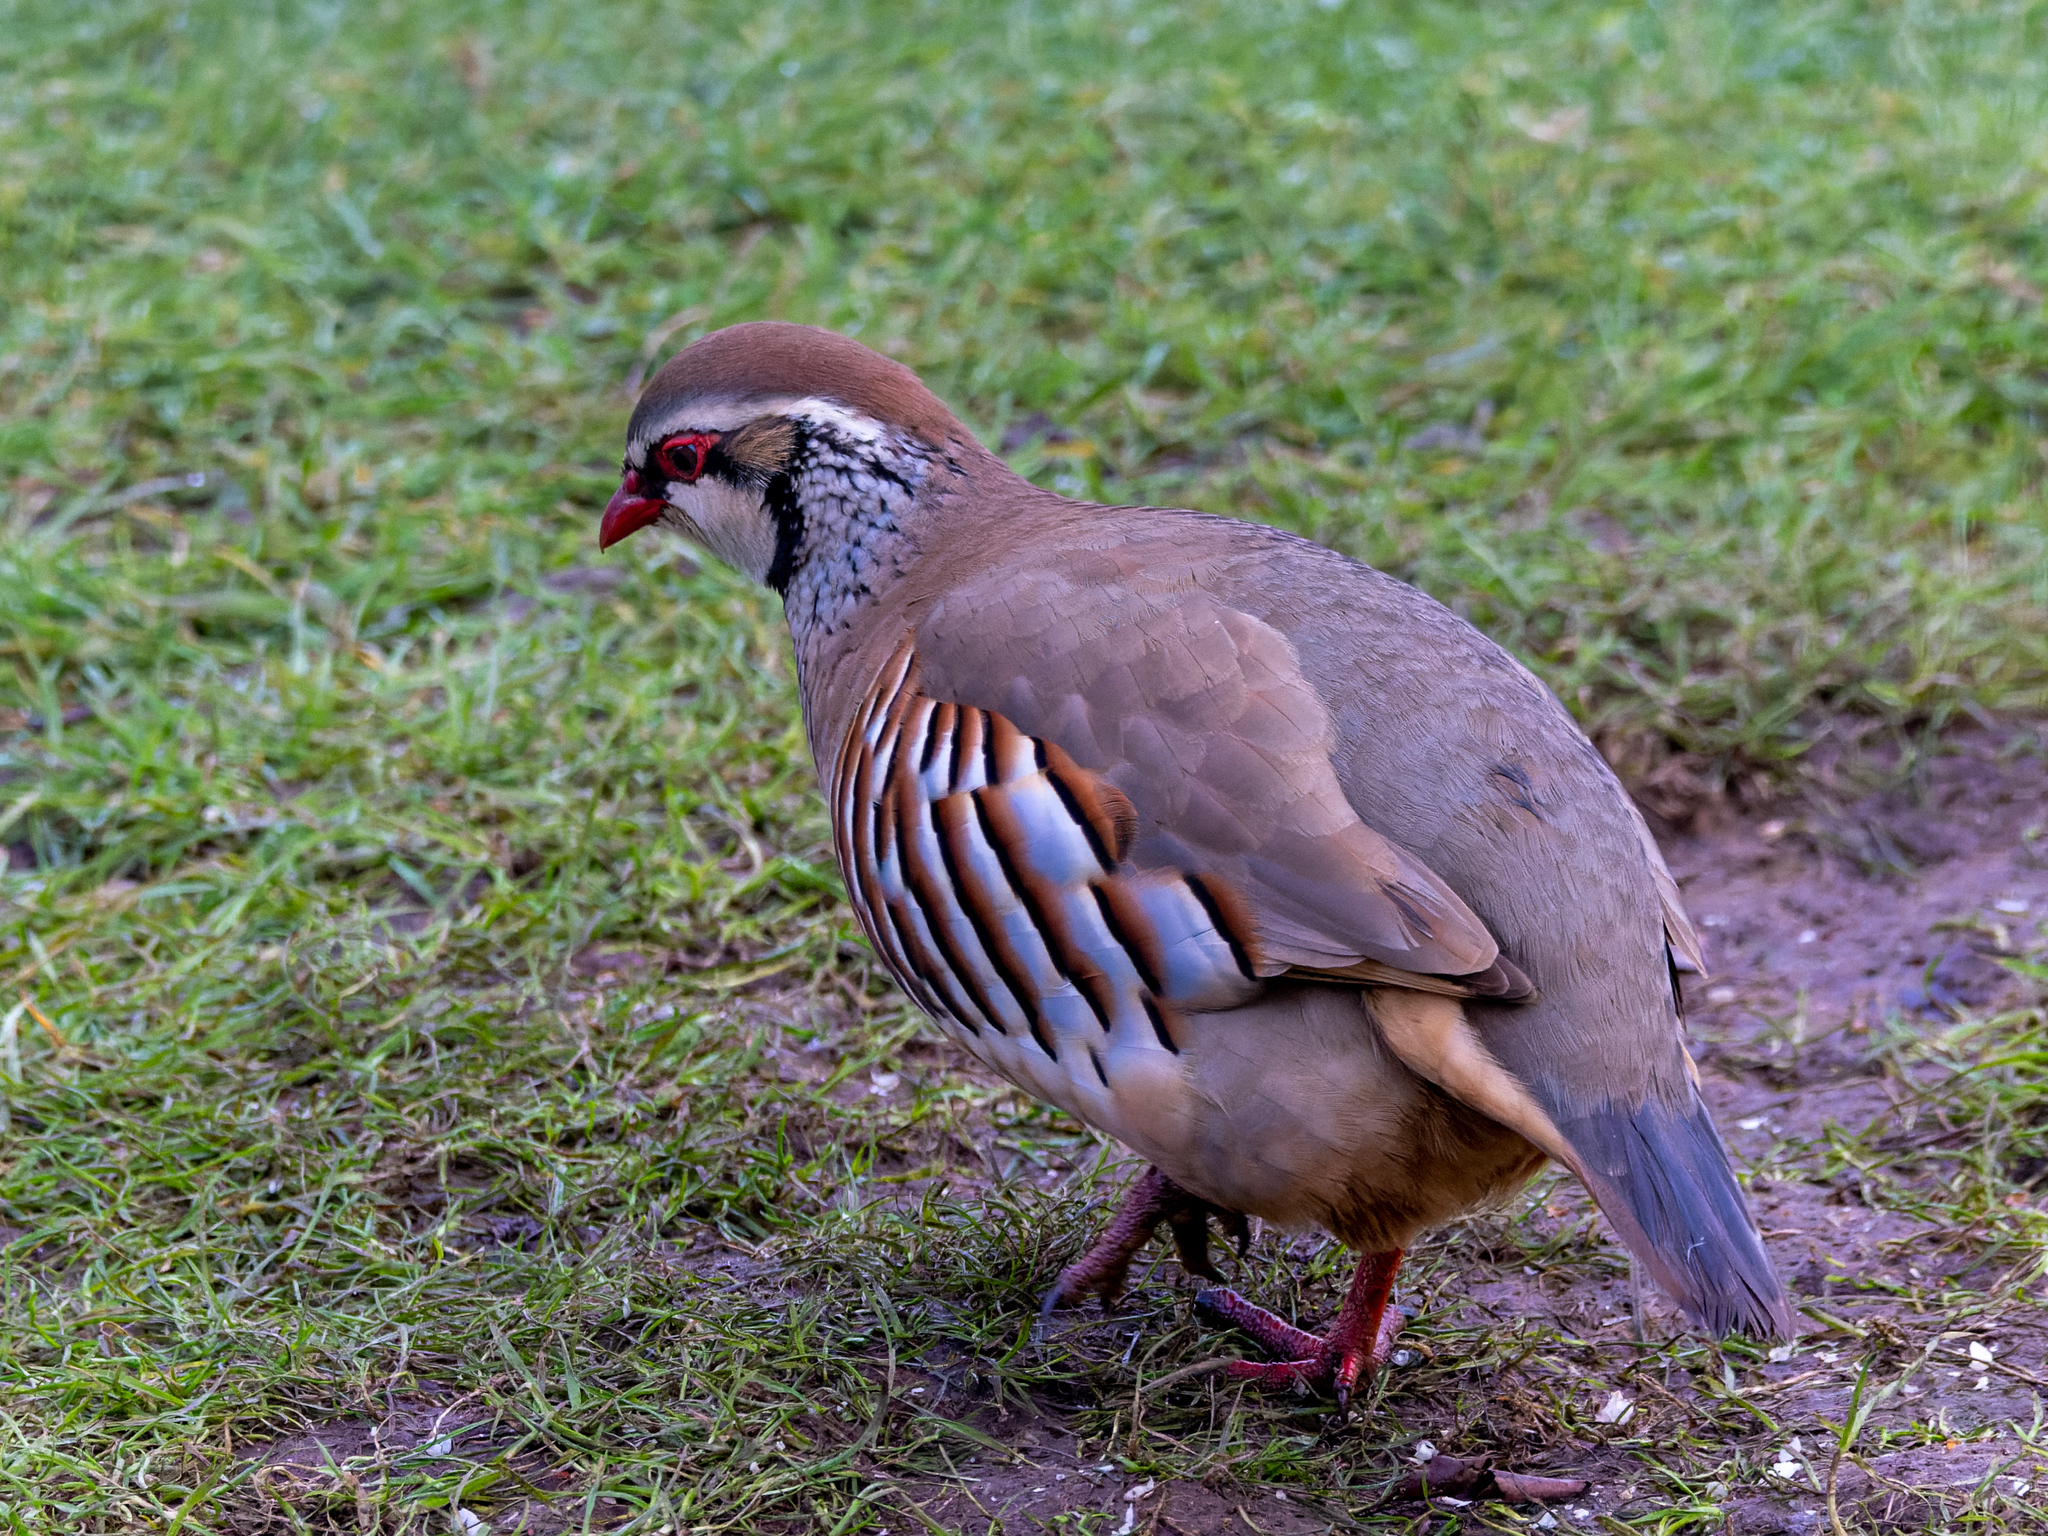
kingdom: Animalia
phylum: Chordata
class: Aves
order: Galliformes
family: Phasianidae
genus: Alectoris
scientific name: Alectoris rufa
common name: Red-legged partridge
